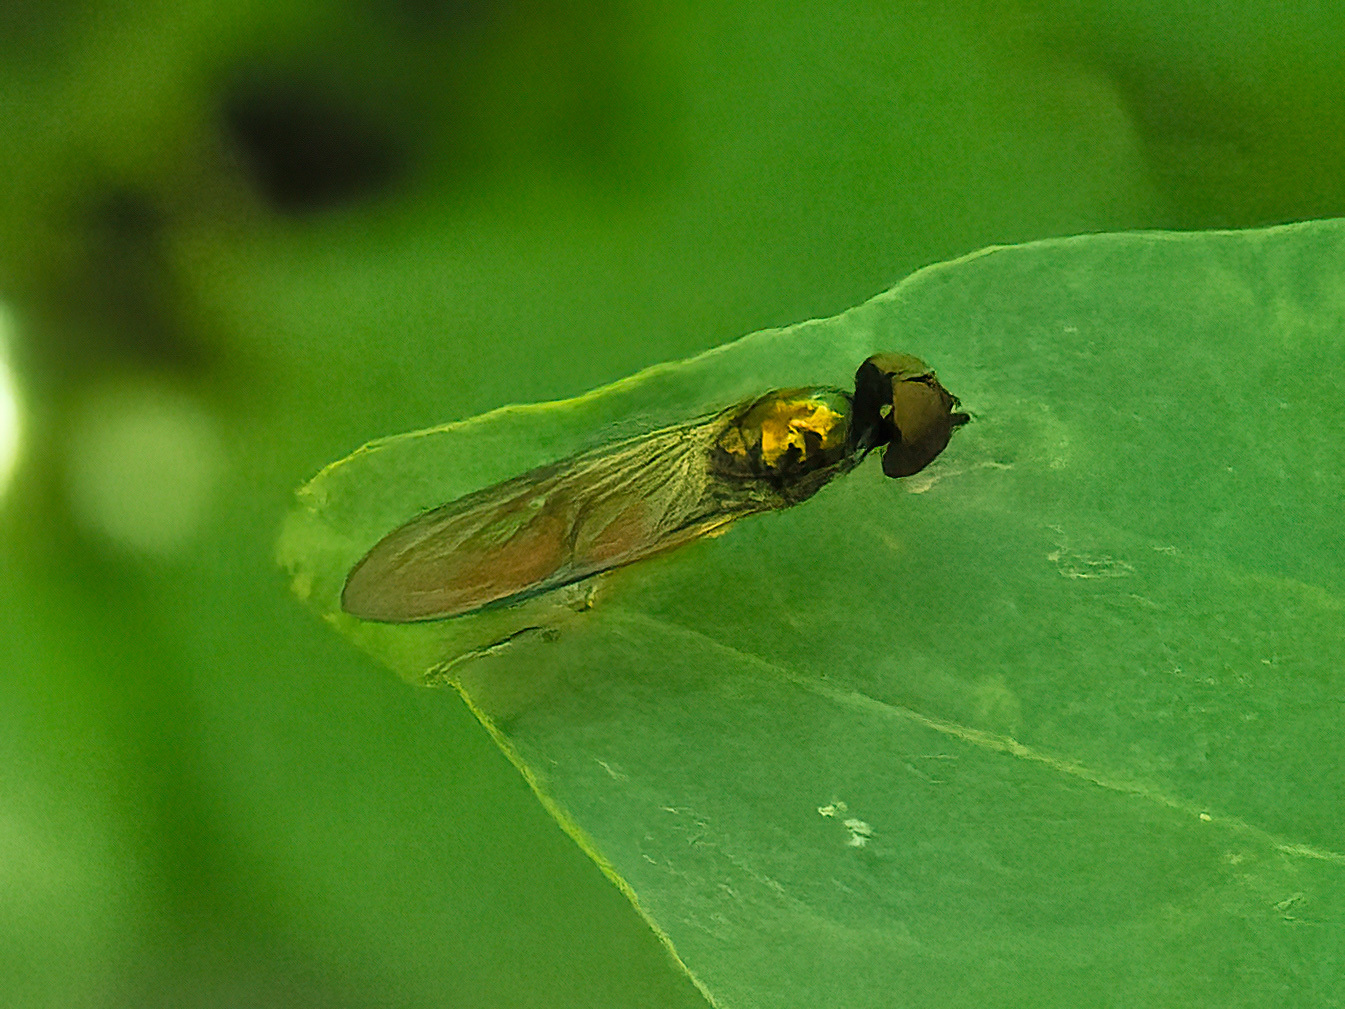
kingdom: Animalia
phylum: Arthropoda
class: Insecta
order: Diptera
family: Stratiomyidae
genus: Sargus
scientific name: Sargus fasciatus
